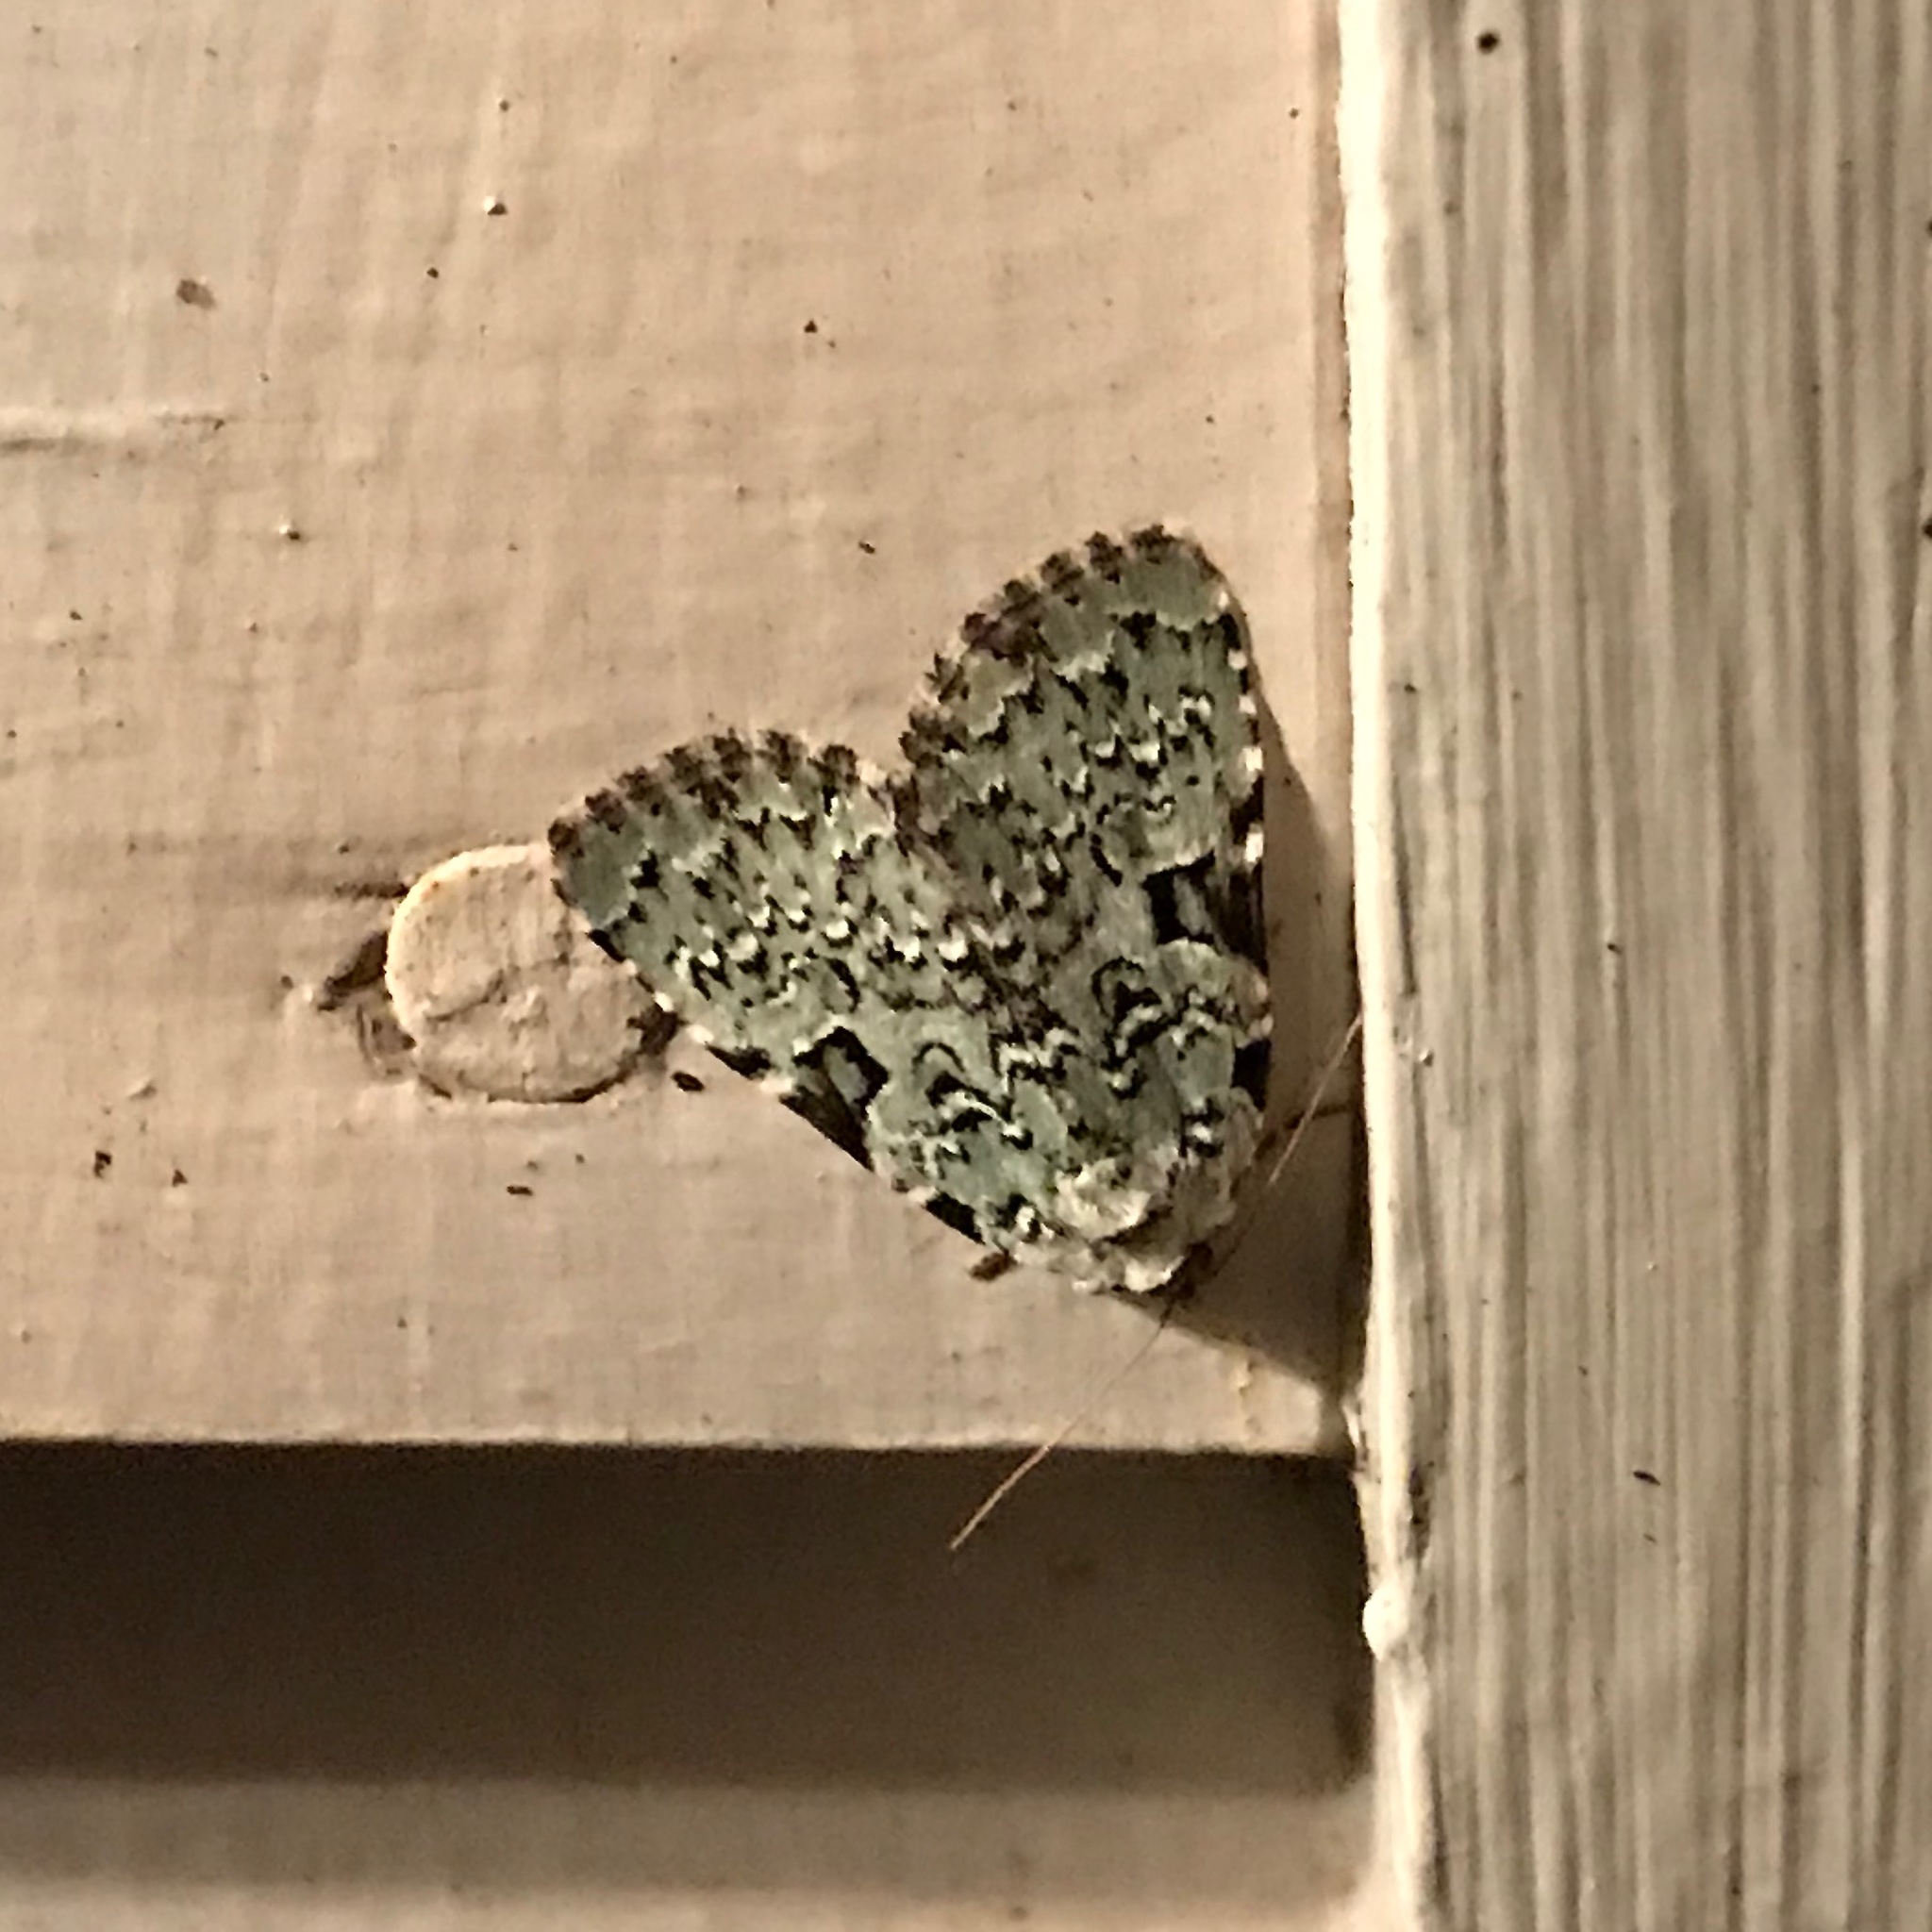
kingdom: Animalia
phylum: Arthropoda
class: Insecta
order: Lepidoptera
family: Noctuidae
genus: Leuconycta
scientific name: Leuconycta diphteroides
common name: Green leuconycta moth
